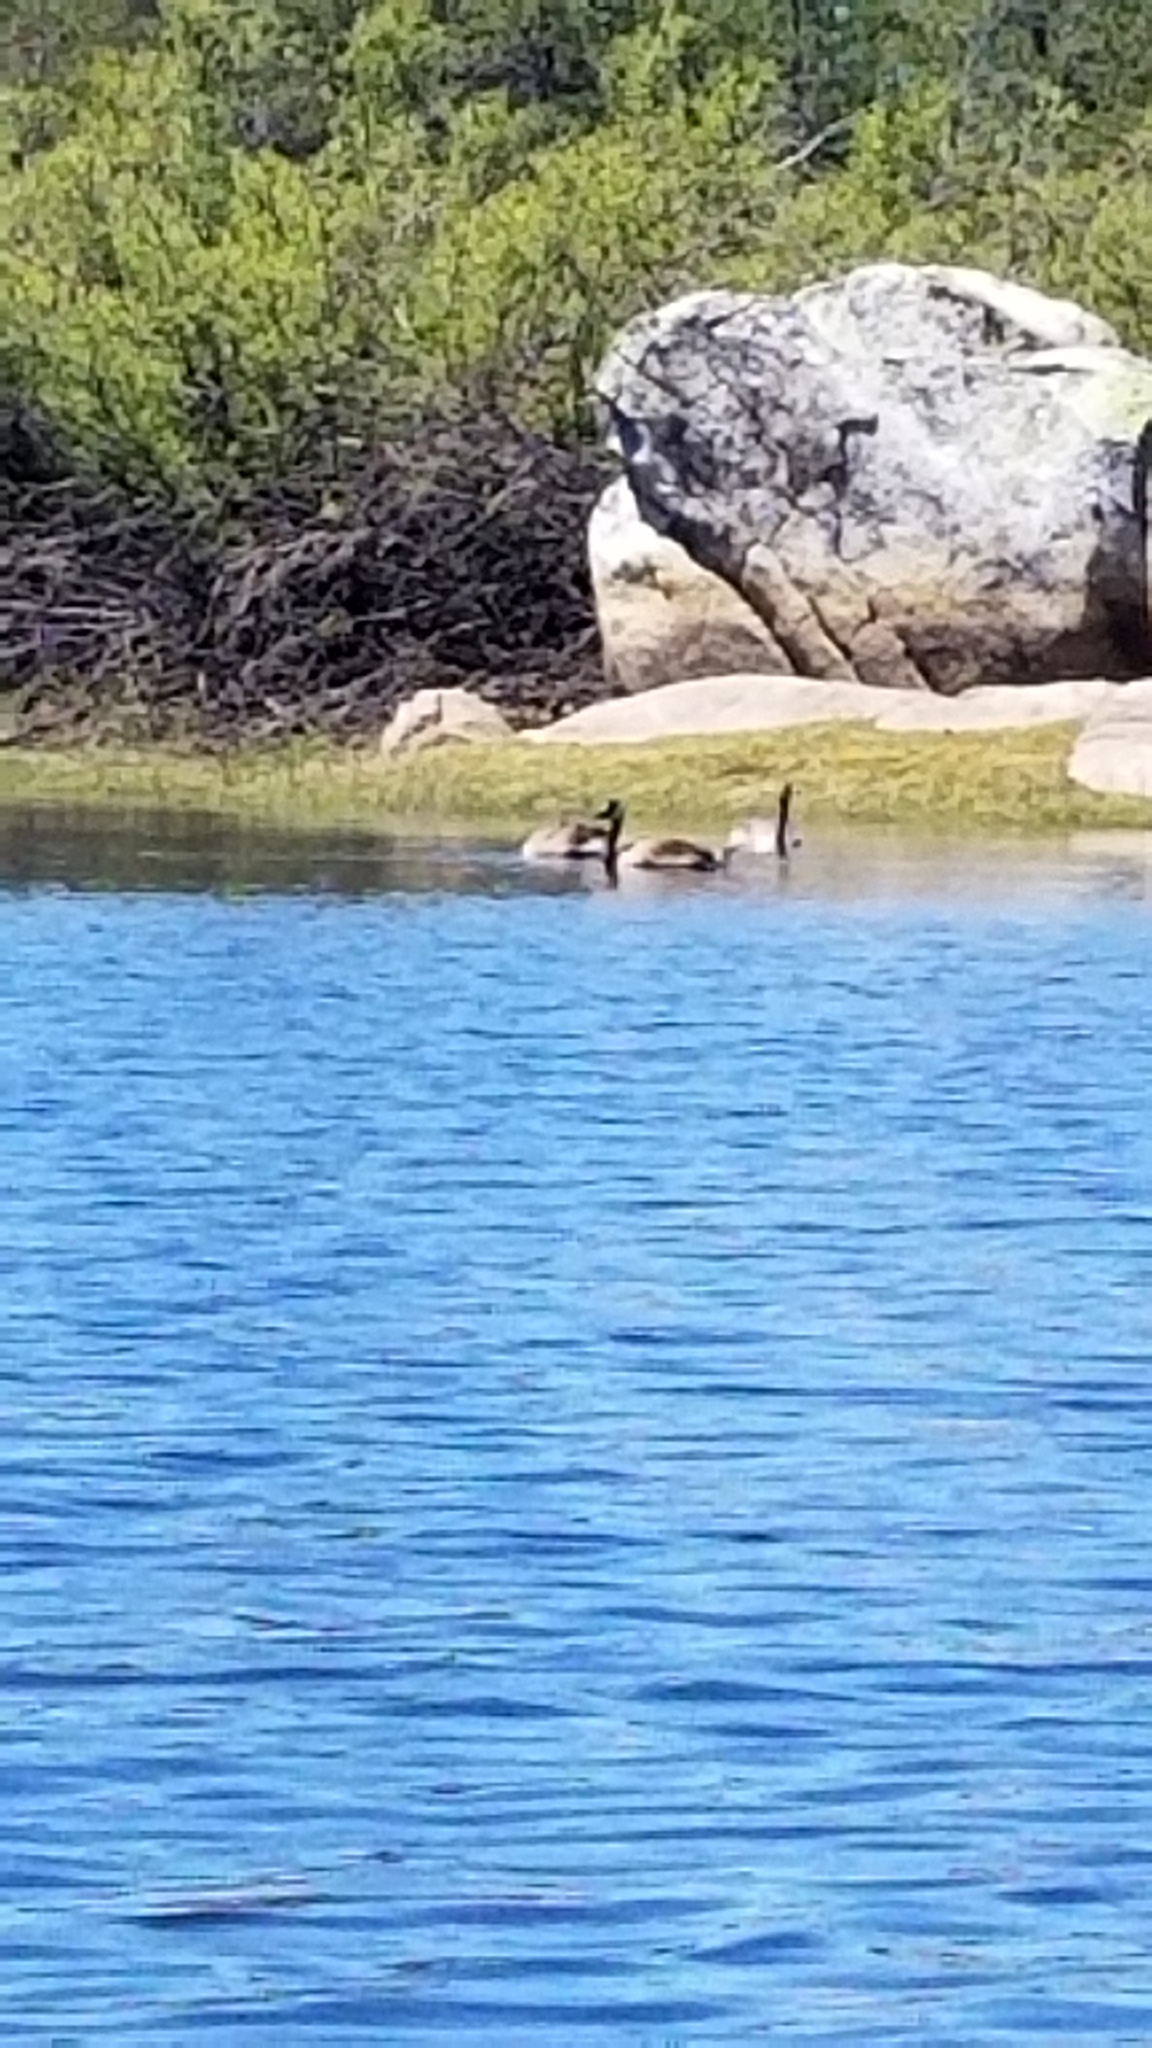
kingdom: Animalia
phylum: Chordata
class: Aves
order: Anseriformes
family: Anatidae
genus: Branta
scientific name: Branta canadensis
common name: Canada goose
